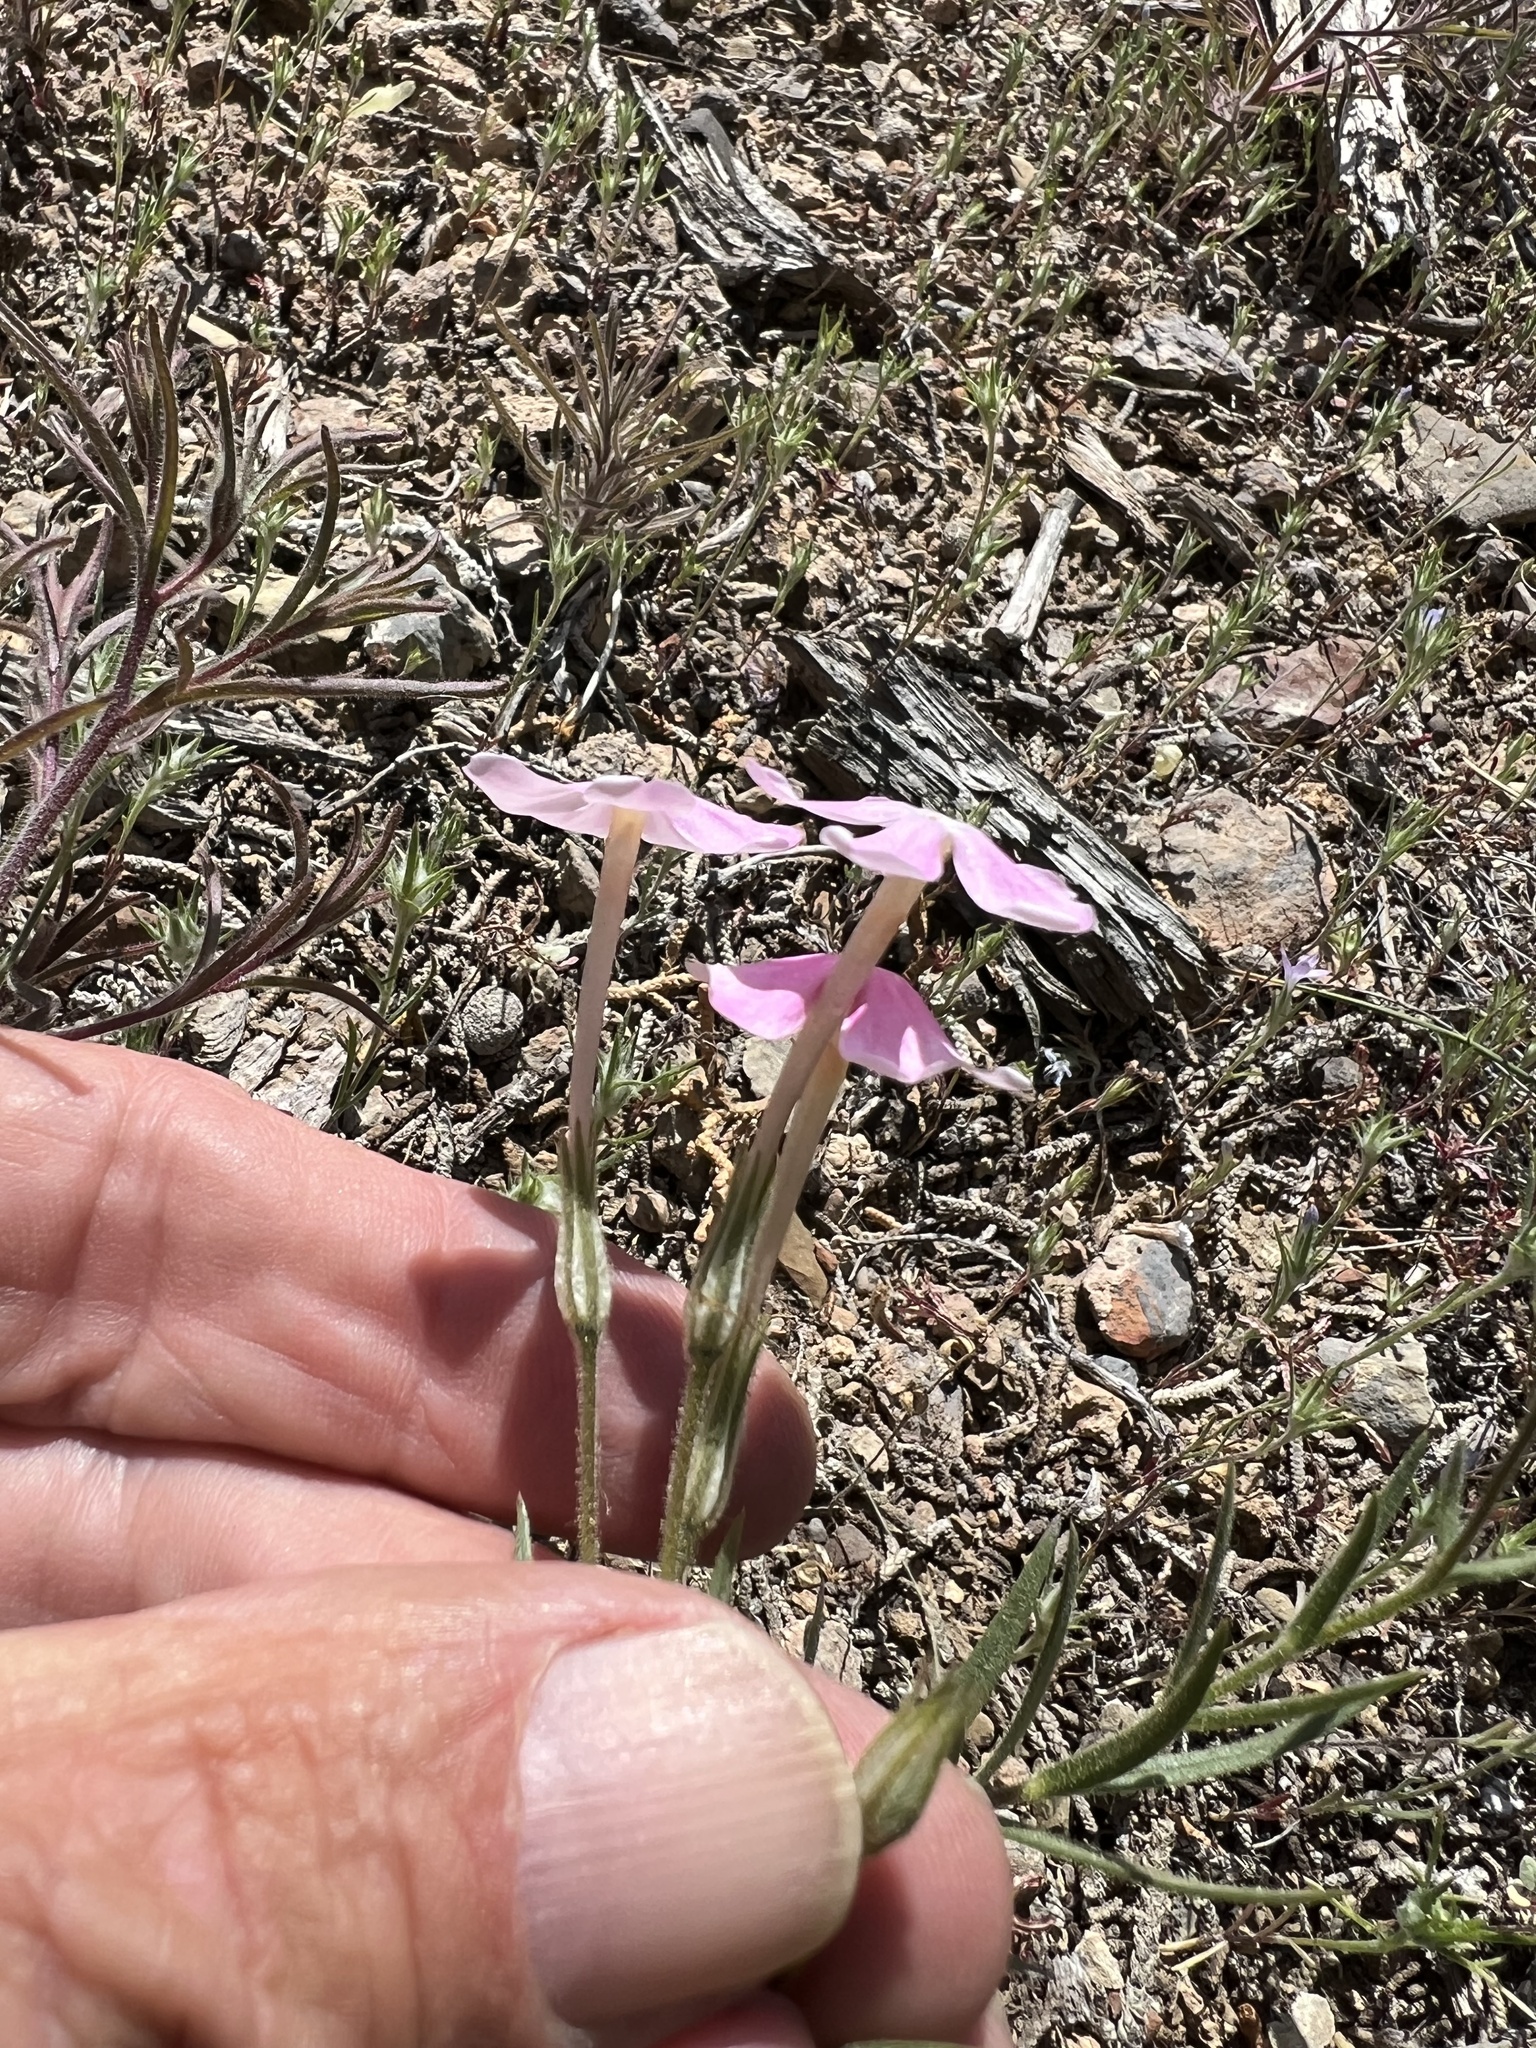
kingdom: Plantae
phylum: Tracheophyta
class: Magnoliopsida
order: Ericales
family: Polemoniaceae
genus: Phlox
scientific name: Phlox longifolia
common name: Longleaf phlox
